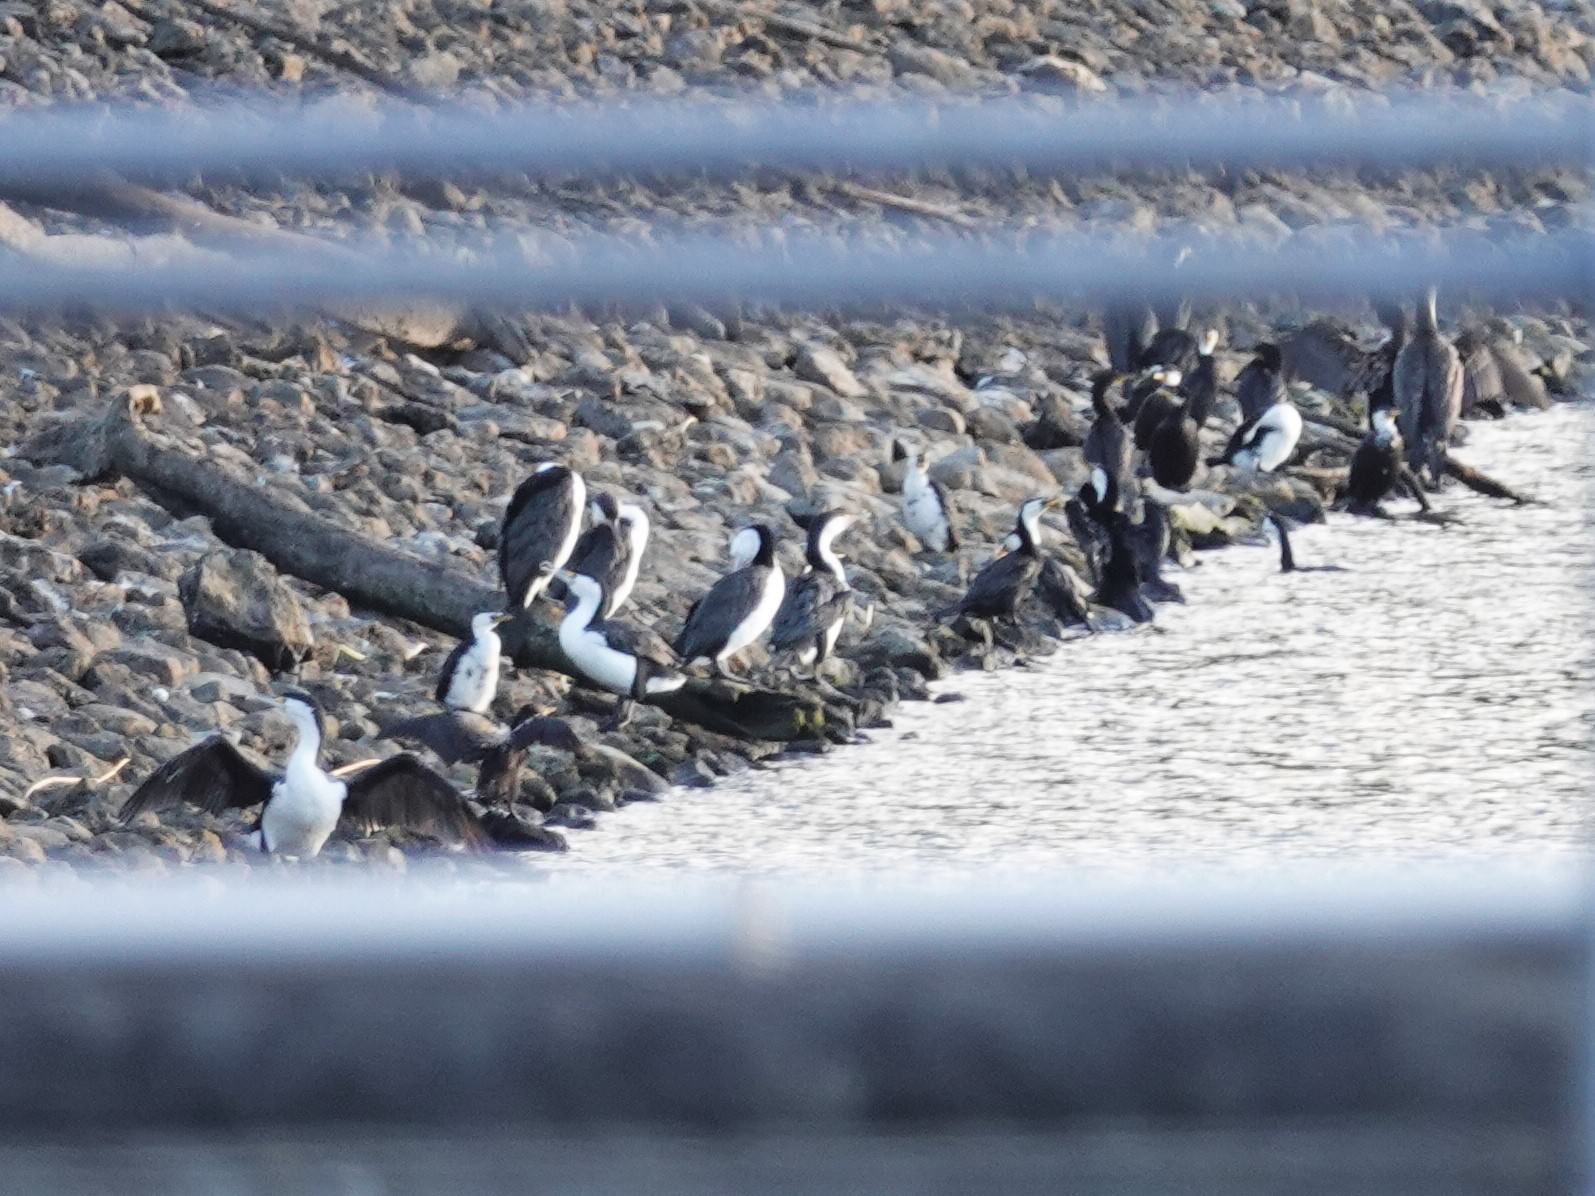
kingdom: Animalia
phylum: Chordata
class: Aves
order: Suliformes
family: Phalacrocoracidae
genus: Microcarbo
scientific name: Microcarbo melanoleucos
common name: Little pied cormorant
